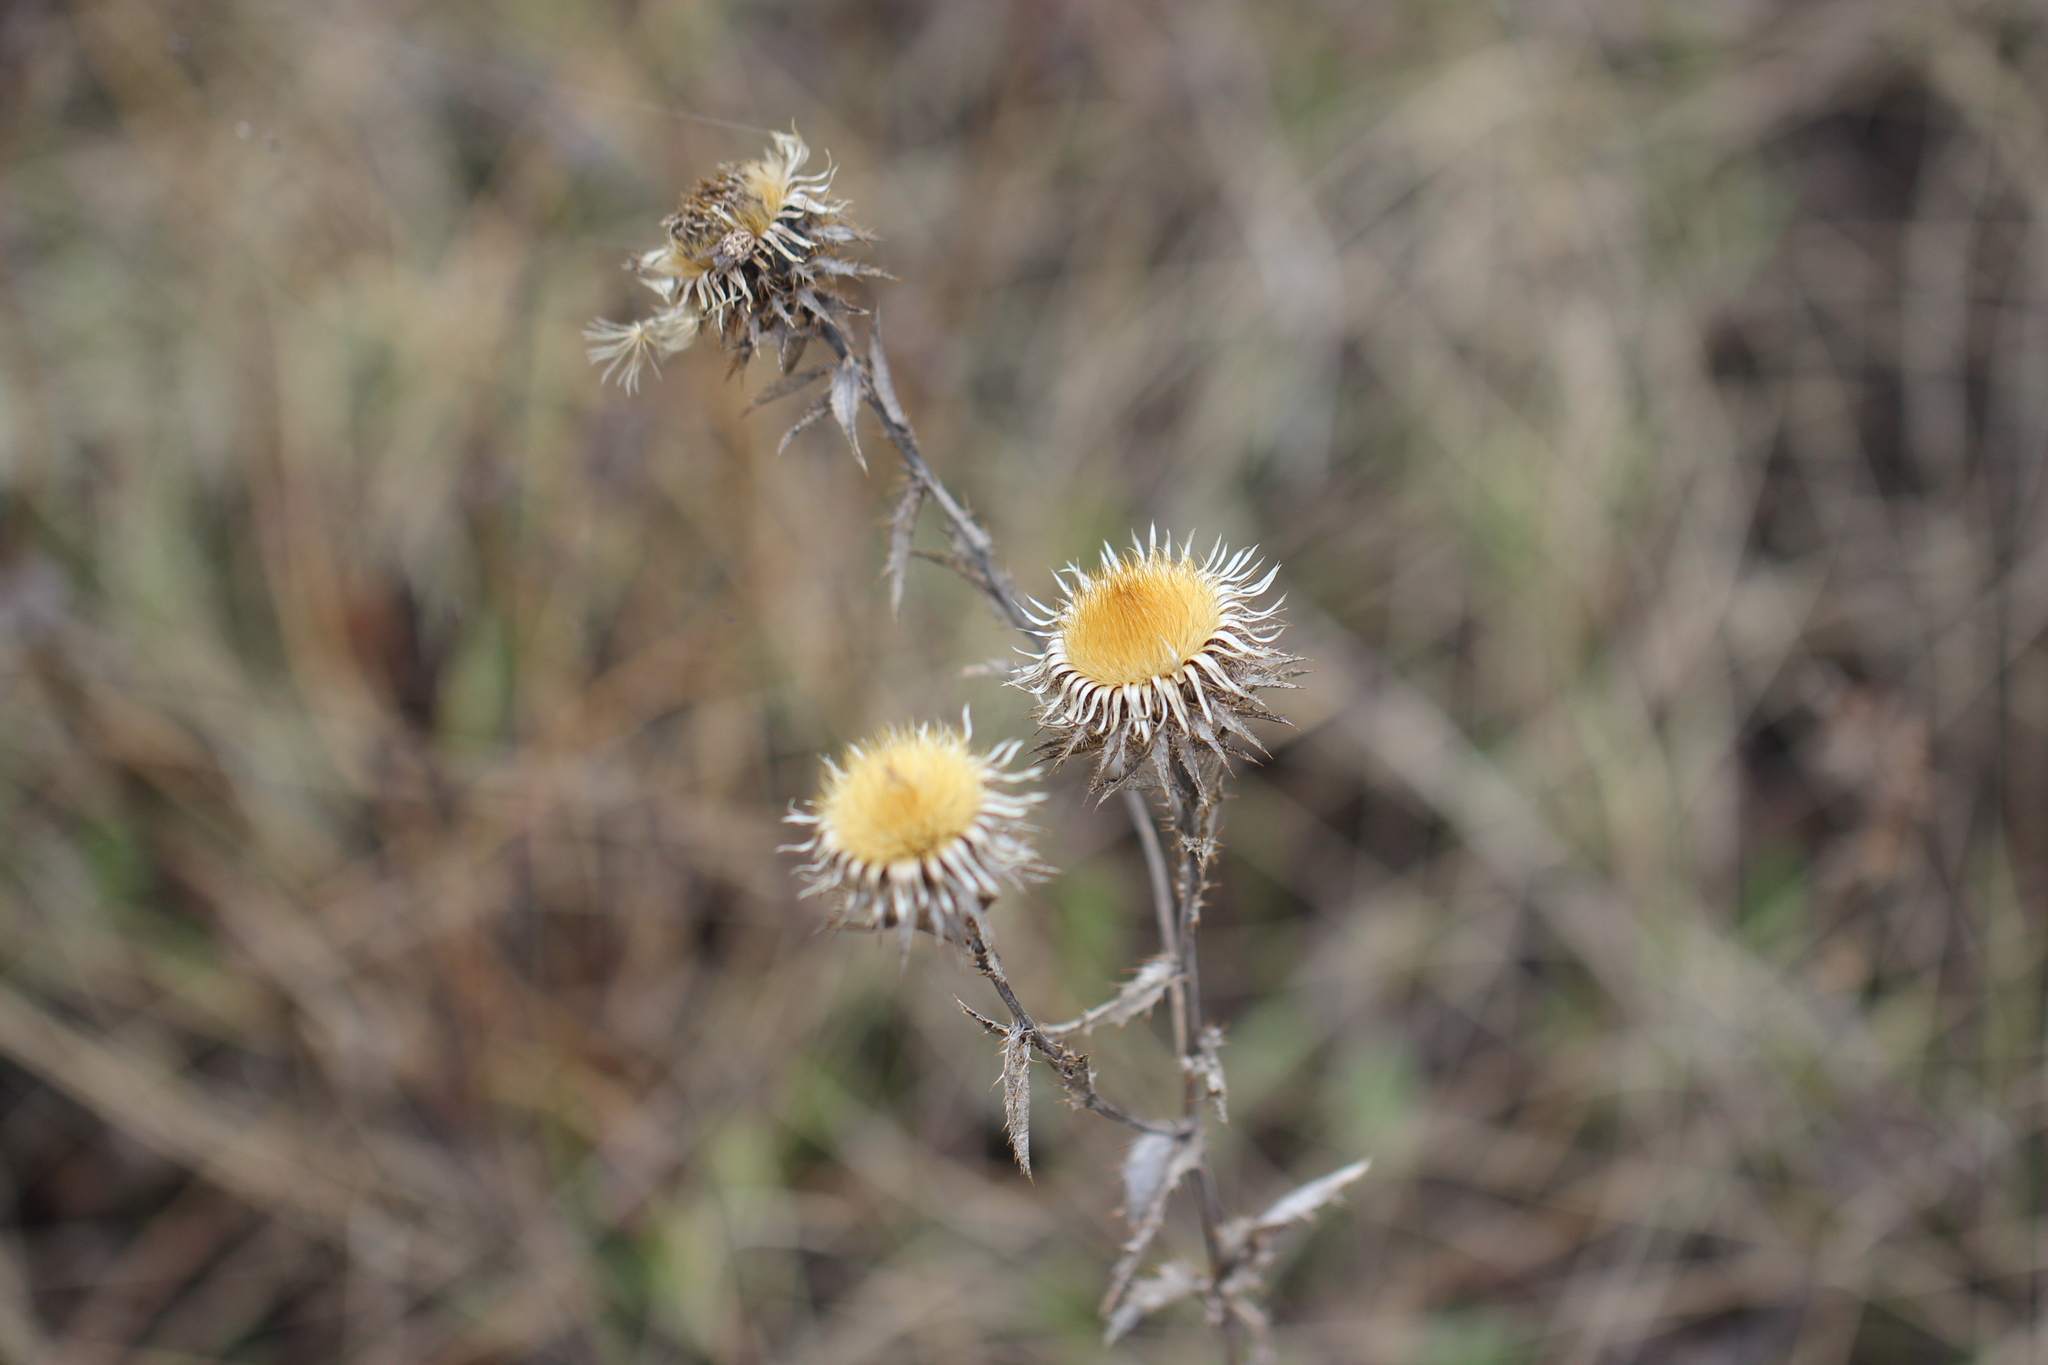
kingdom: Plantae
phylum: Tracheophyta
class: Magnoliopsida
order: Asterales
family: Asteraceae
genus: Carlina
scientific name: Carlina biebersteinii
